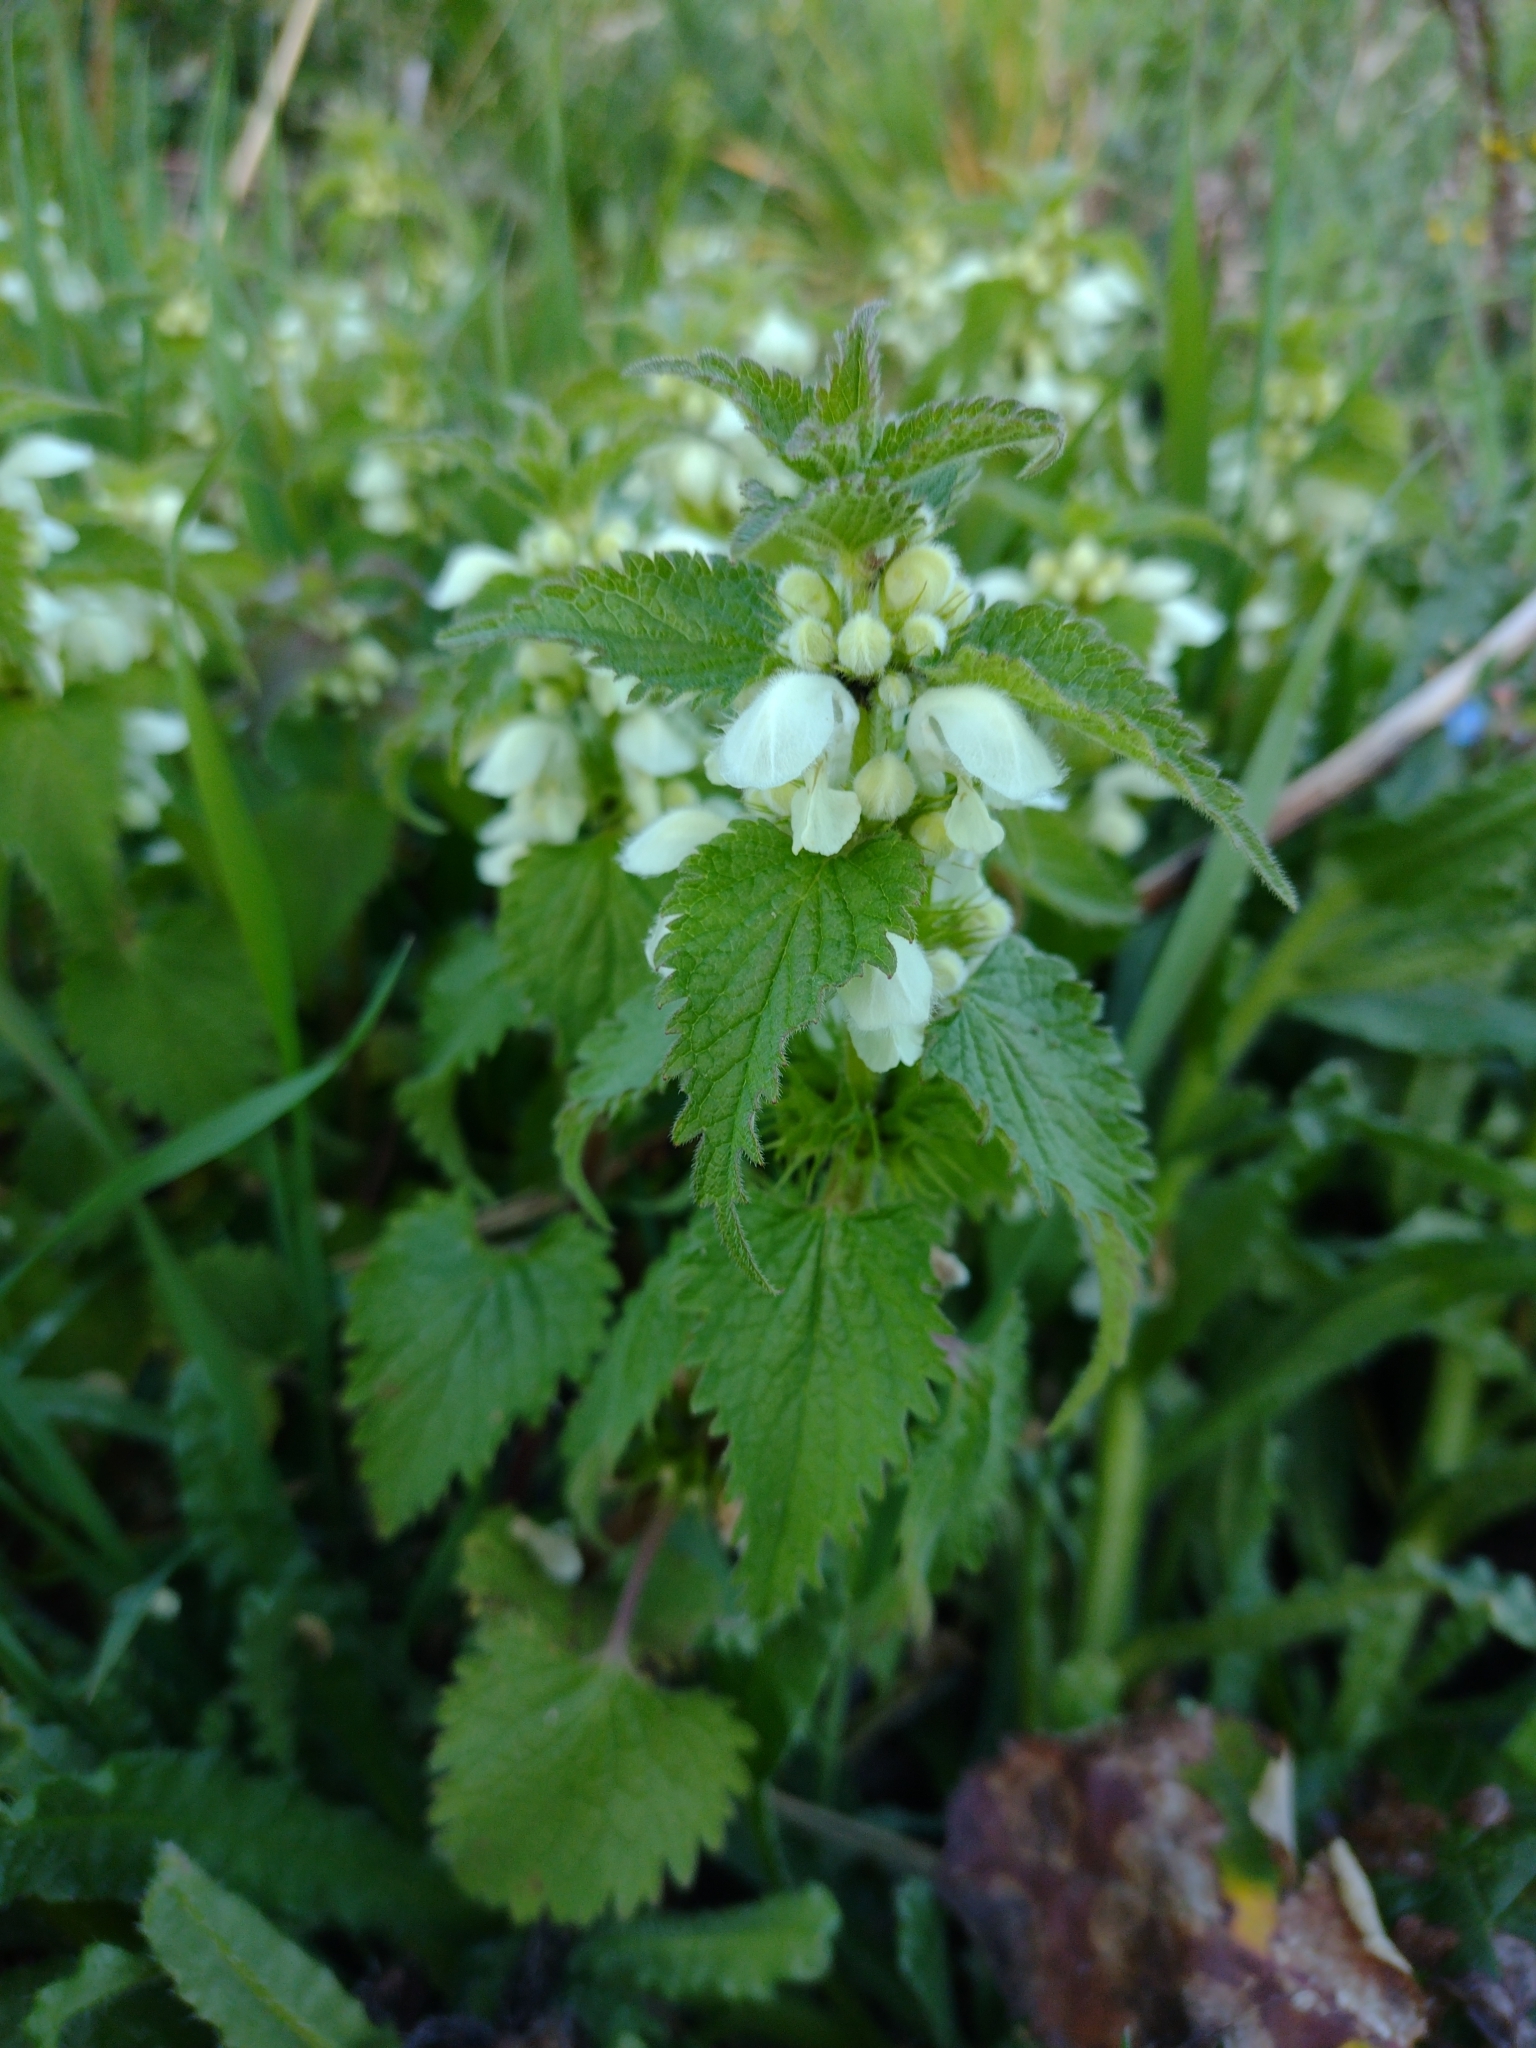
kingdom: Plantae
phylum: Tracheophyta
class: Magnoliopsida
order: Lamiales
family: Lamiaceae
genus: Lamium
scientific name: Lamium album
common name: White dead-nettle
